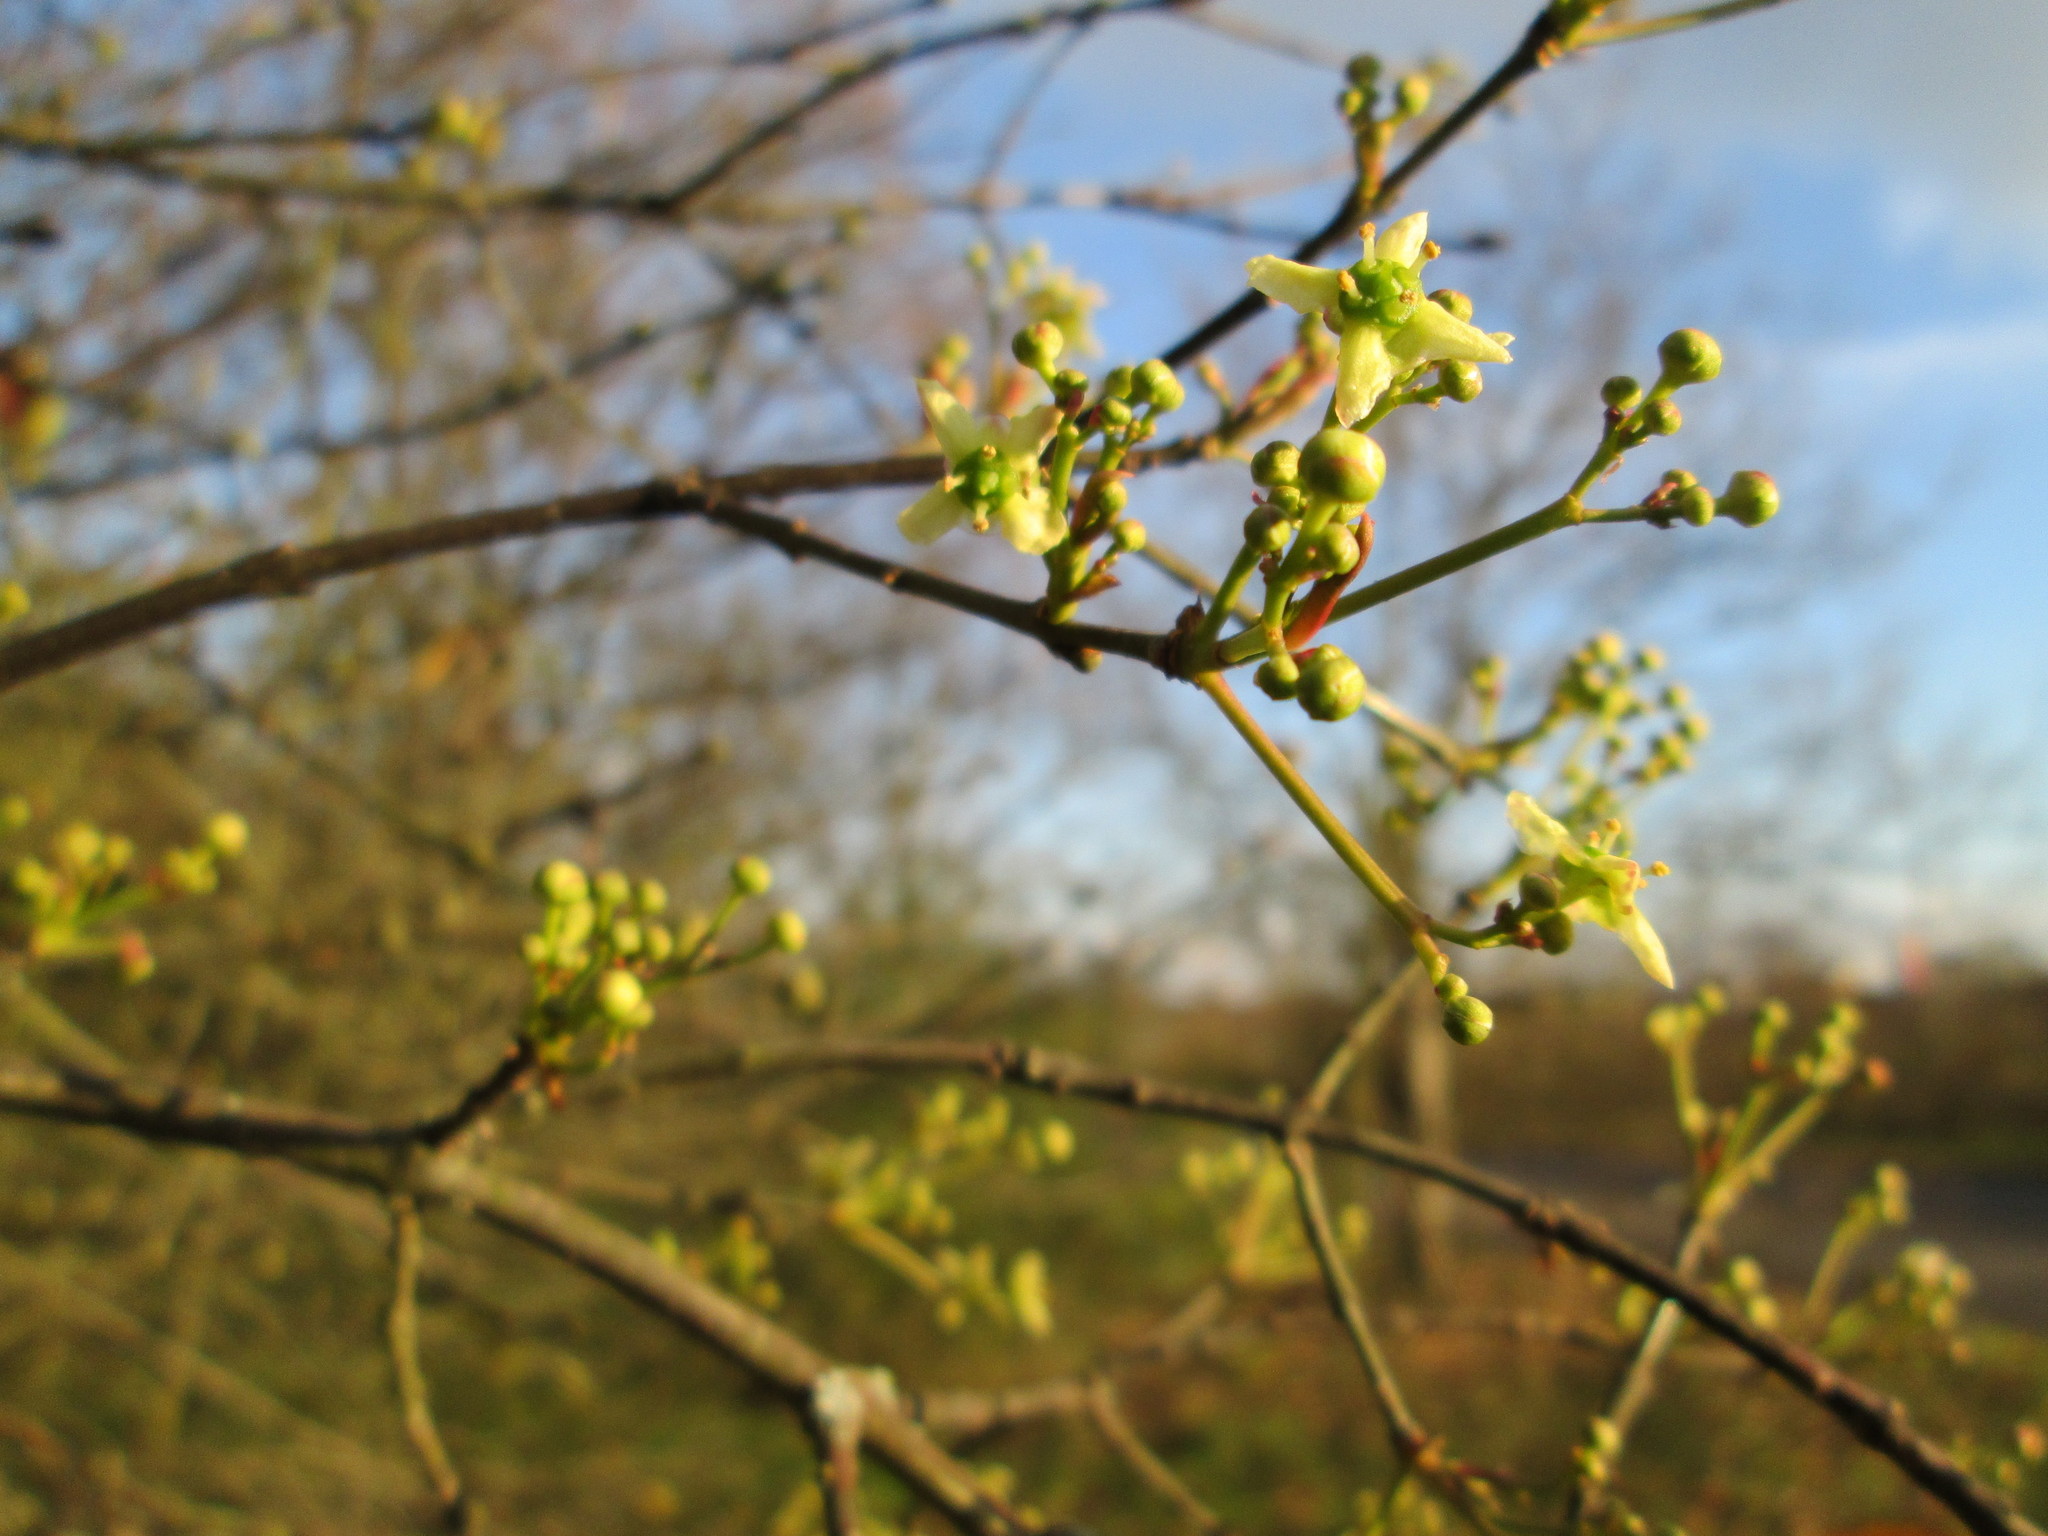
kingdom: Plantae
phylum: Tracheophyta
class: Magnoliopsida
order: Celastrales
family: Celastraceae
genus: Euonymus
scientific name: Euonymus europaeus
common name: Spindle
